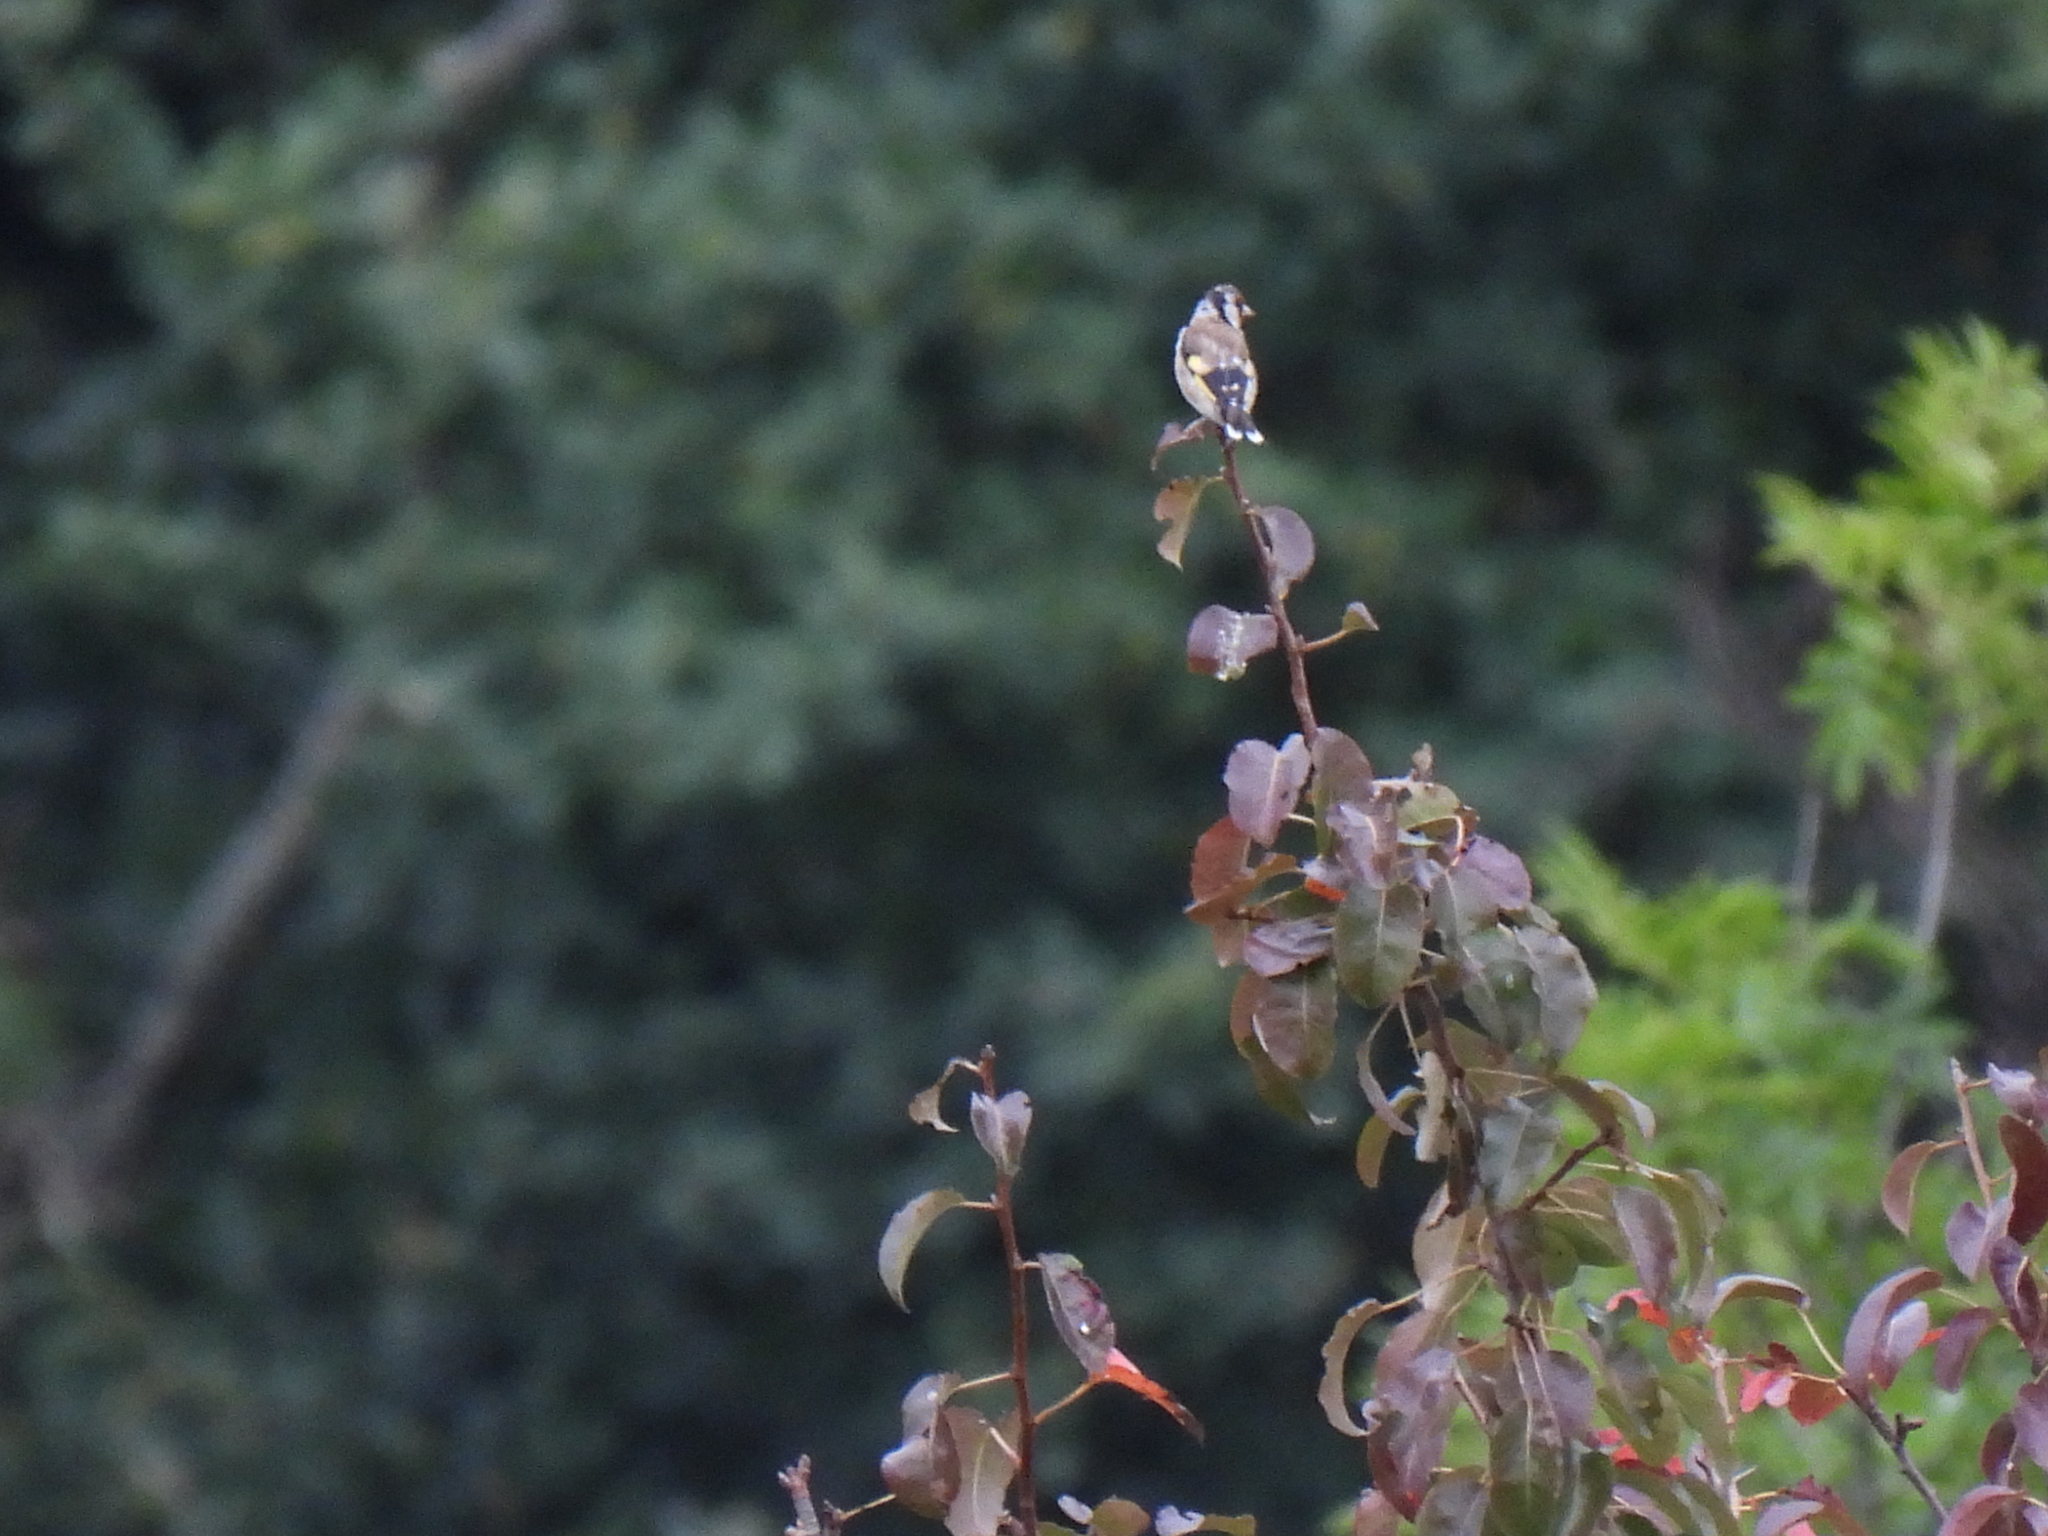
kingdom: Animalia
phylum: Chordata
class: Aves
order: Passeriformes
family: Fringillidae
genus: Carduelis
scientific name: Carduelis carduelis
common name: European goldfinch
